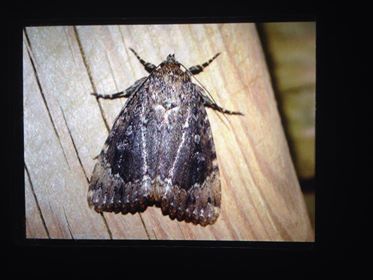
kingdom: Animalia
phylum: Arthropoda
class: Insecta
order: Lepidoptera
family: Noctuidae
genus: Amphipyra
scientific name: Amphipyra pyramidoides
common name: American copper underwing
